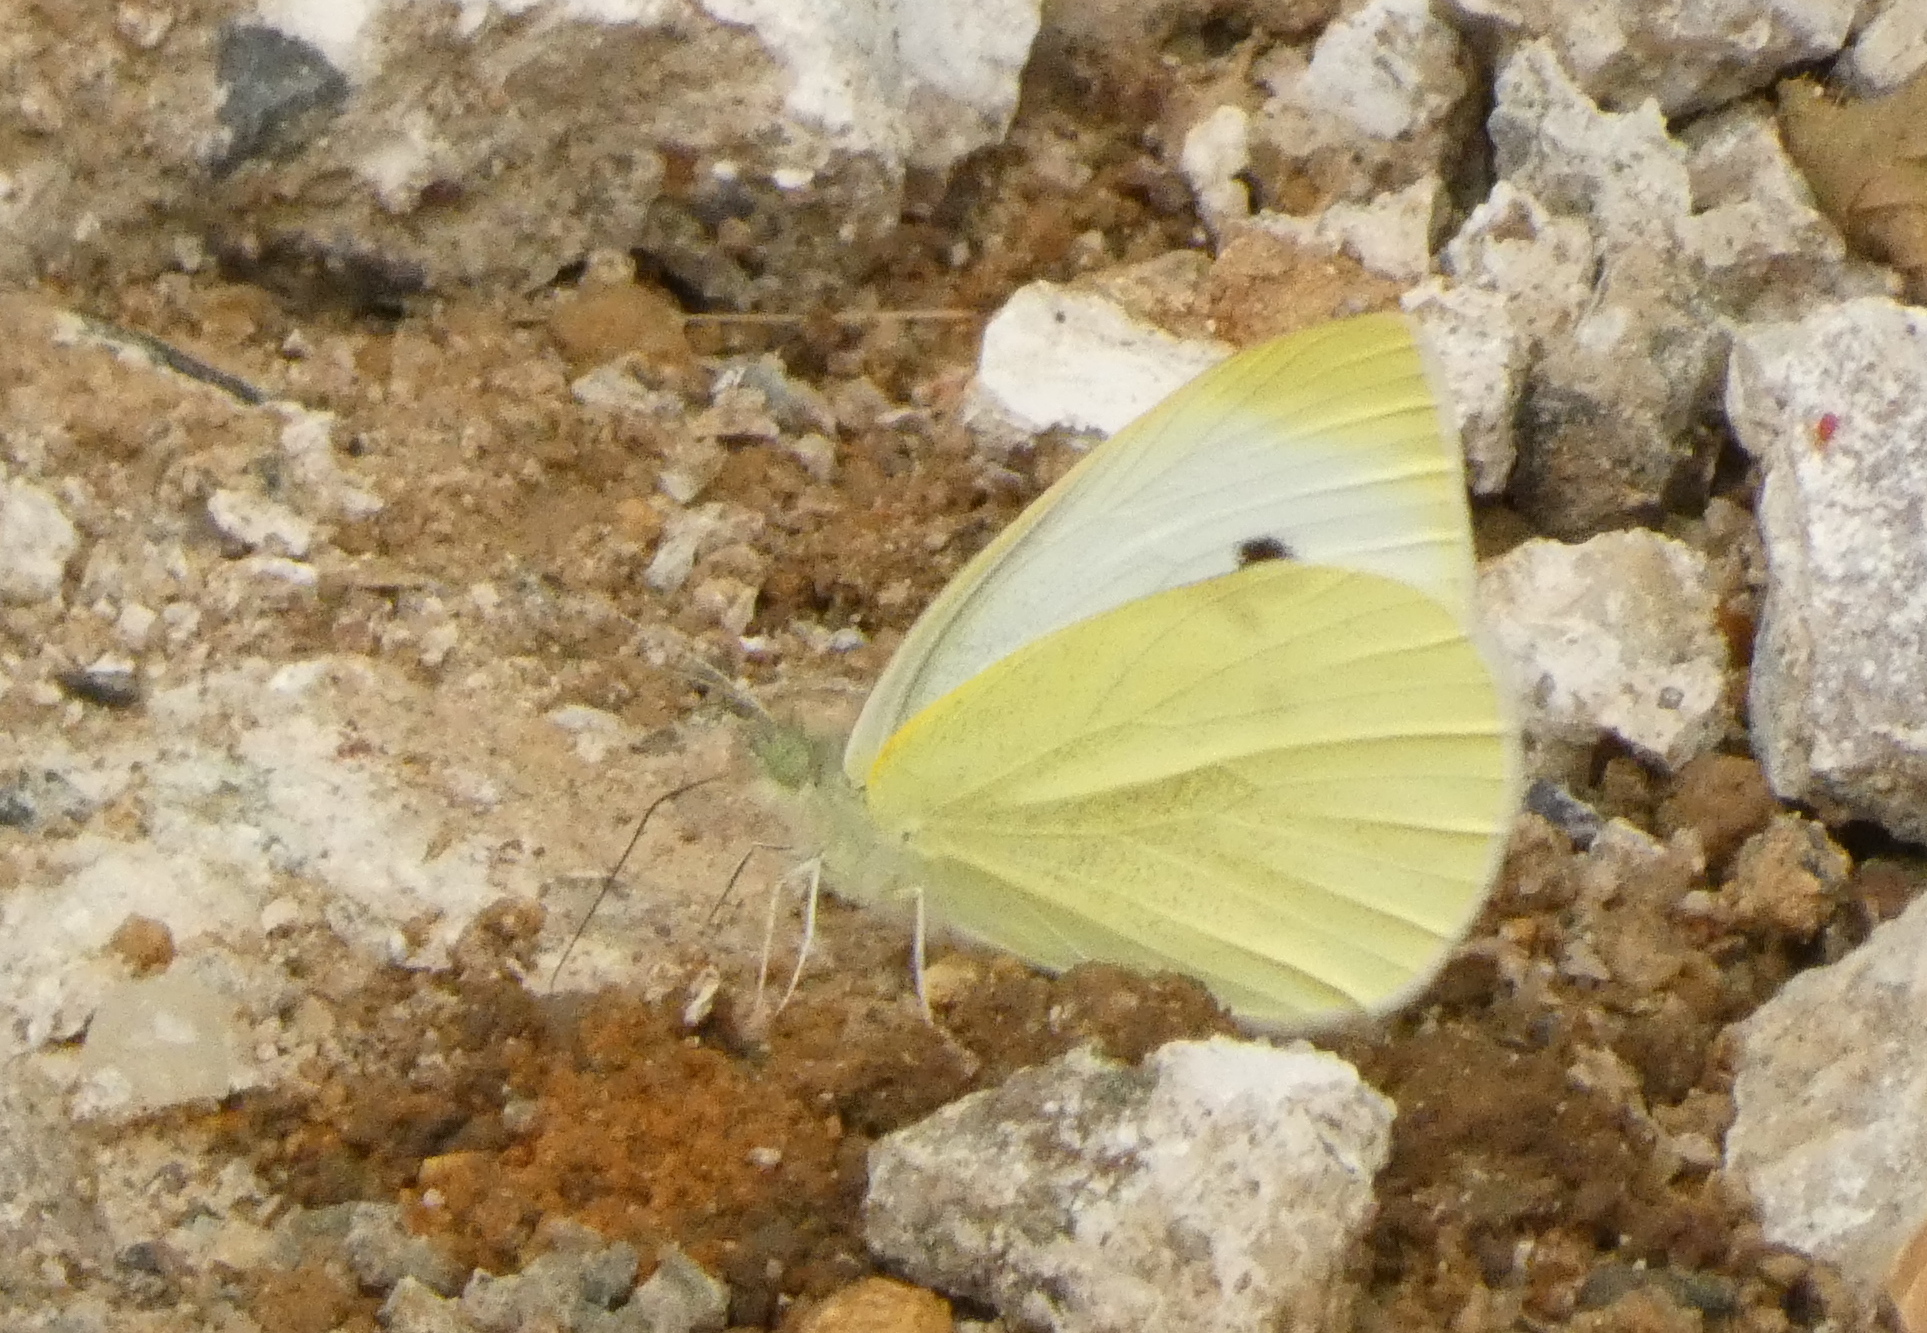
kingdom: Animalia
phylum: Arthropoda
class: Insecta
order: Lepidoptera
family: Pieridae
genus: Pieris
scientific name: Pieris rapae
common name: Small white
